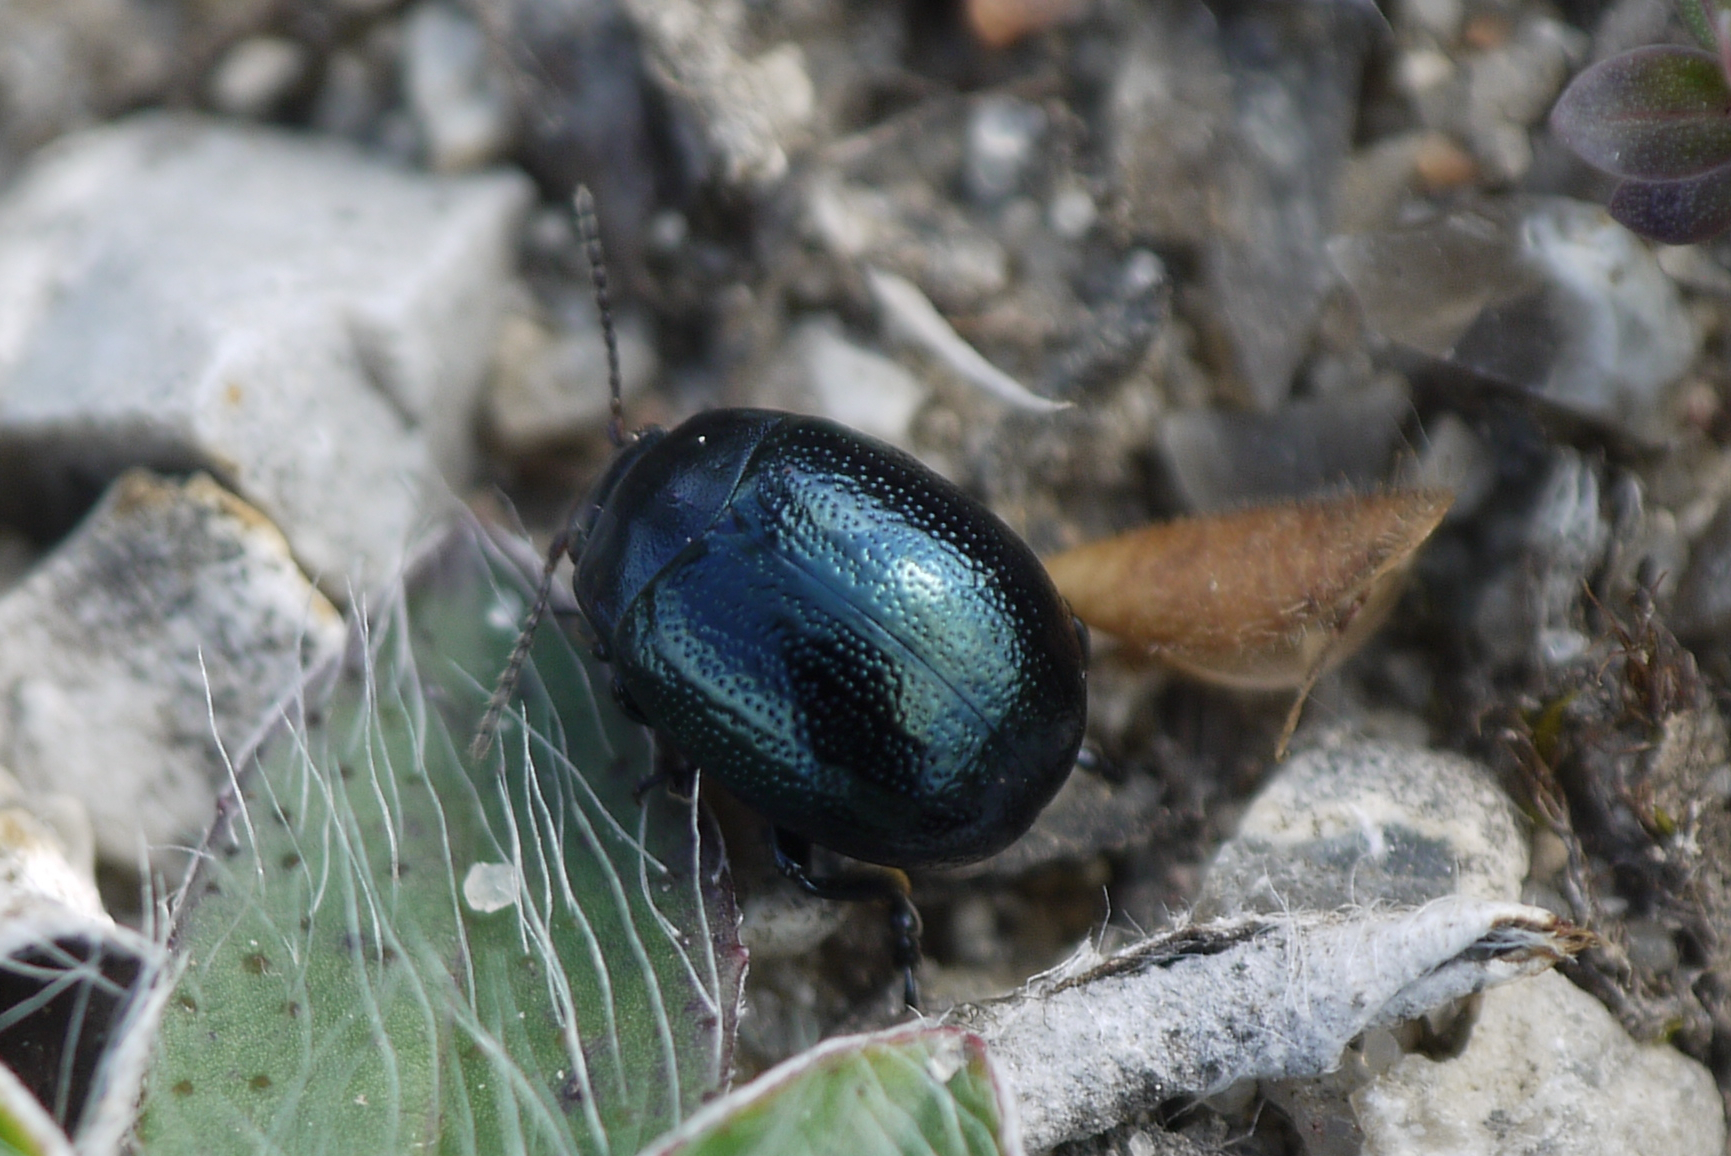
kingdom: Animalia
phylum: Arthropoda
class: Insecta
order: Coleoptera
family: Chrysomelidae
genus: Chrysolina
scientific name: Chrysolina haemoptera
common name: Plantain leaf beetle
